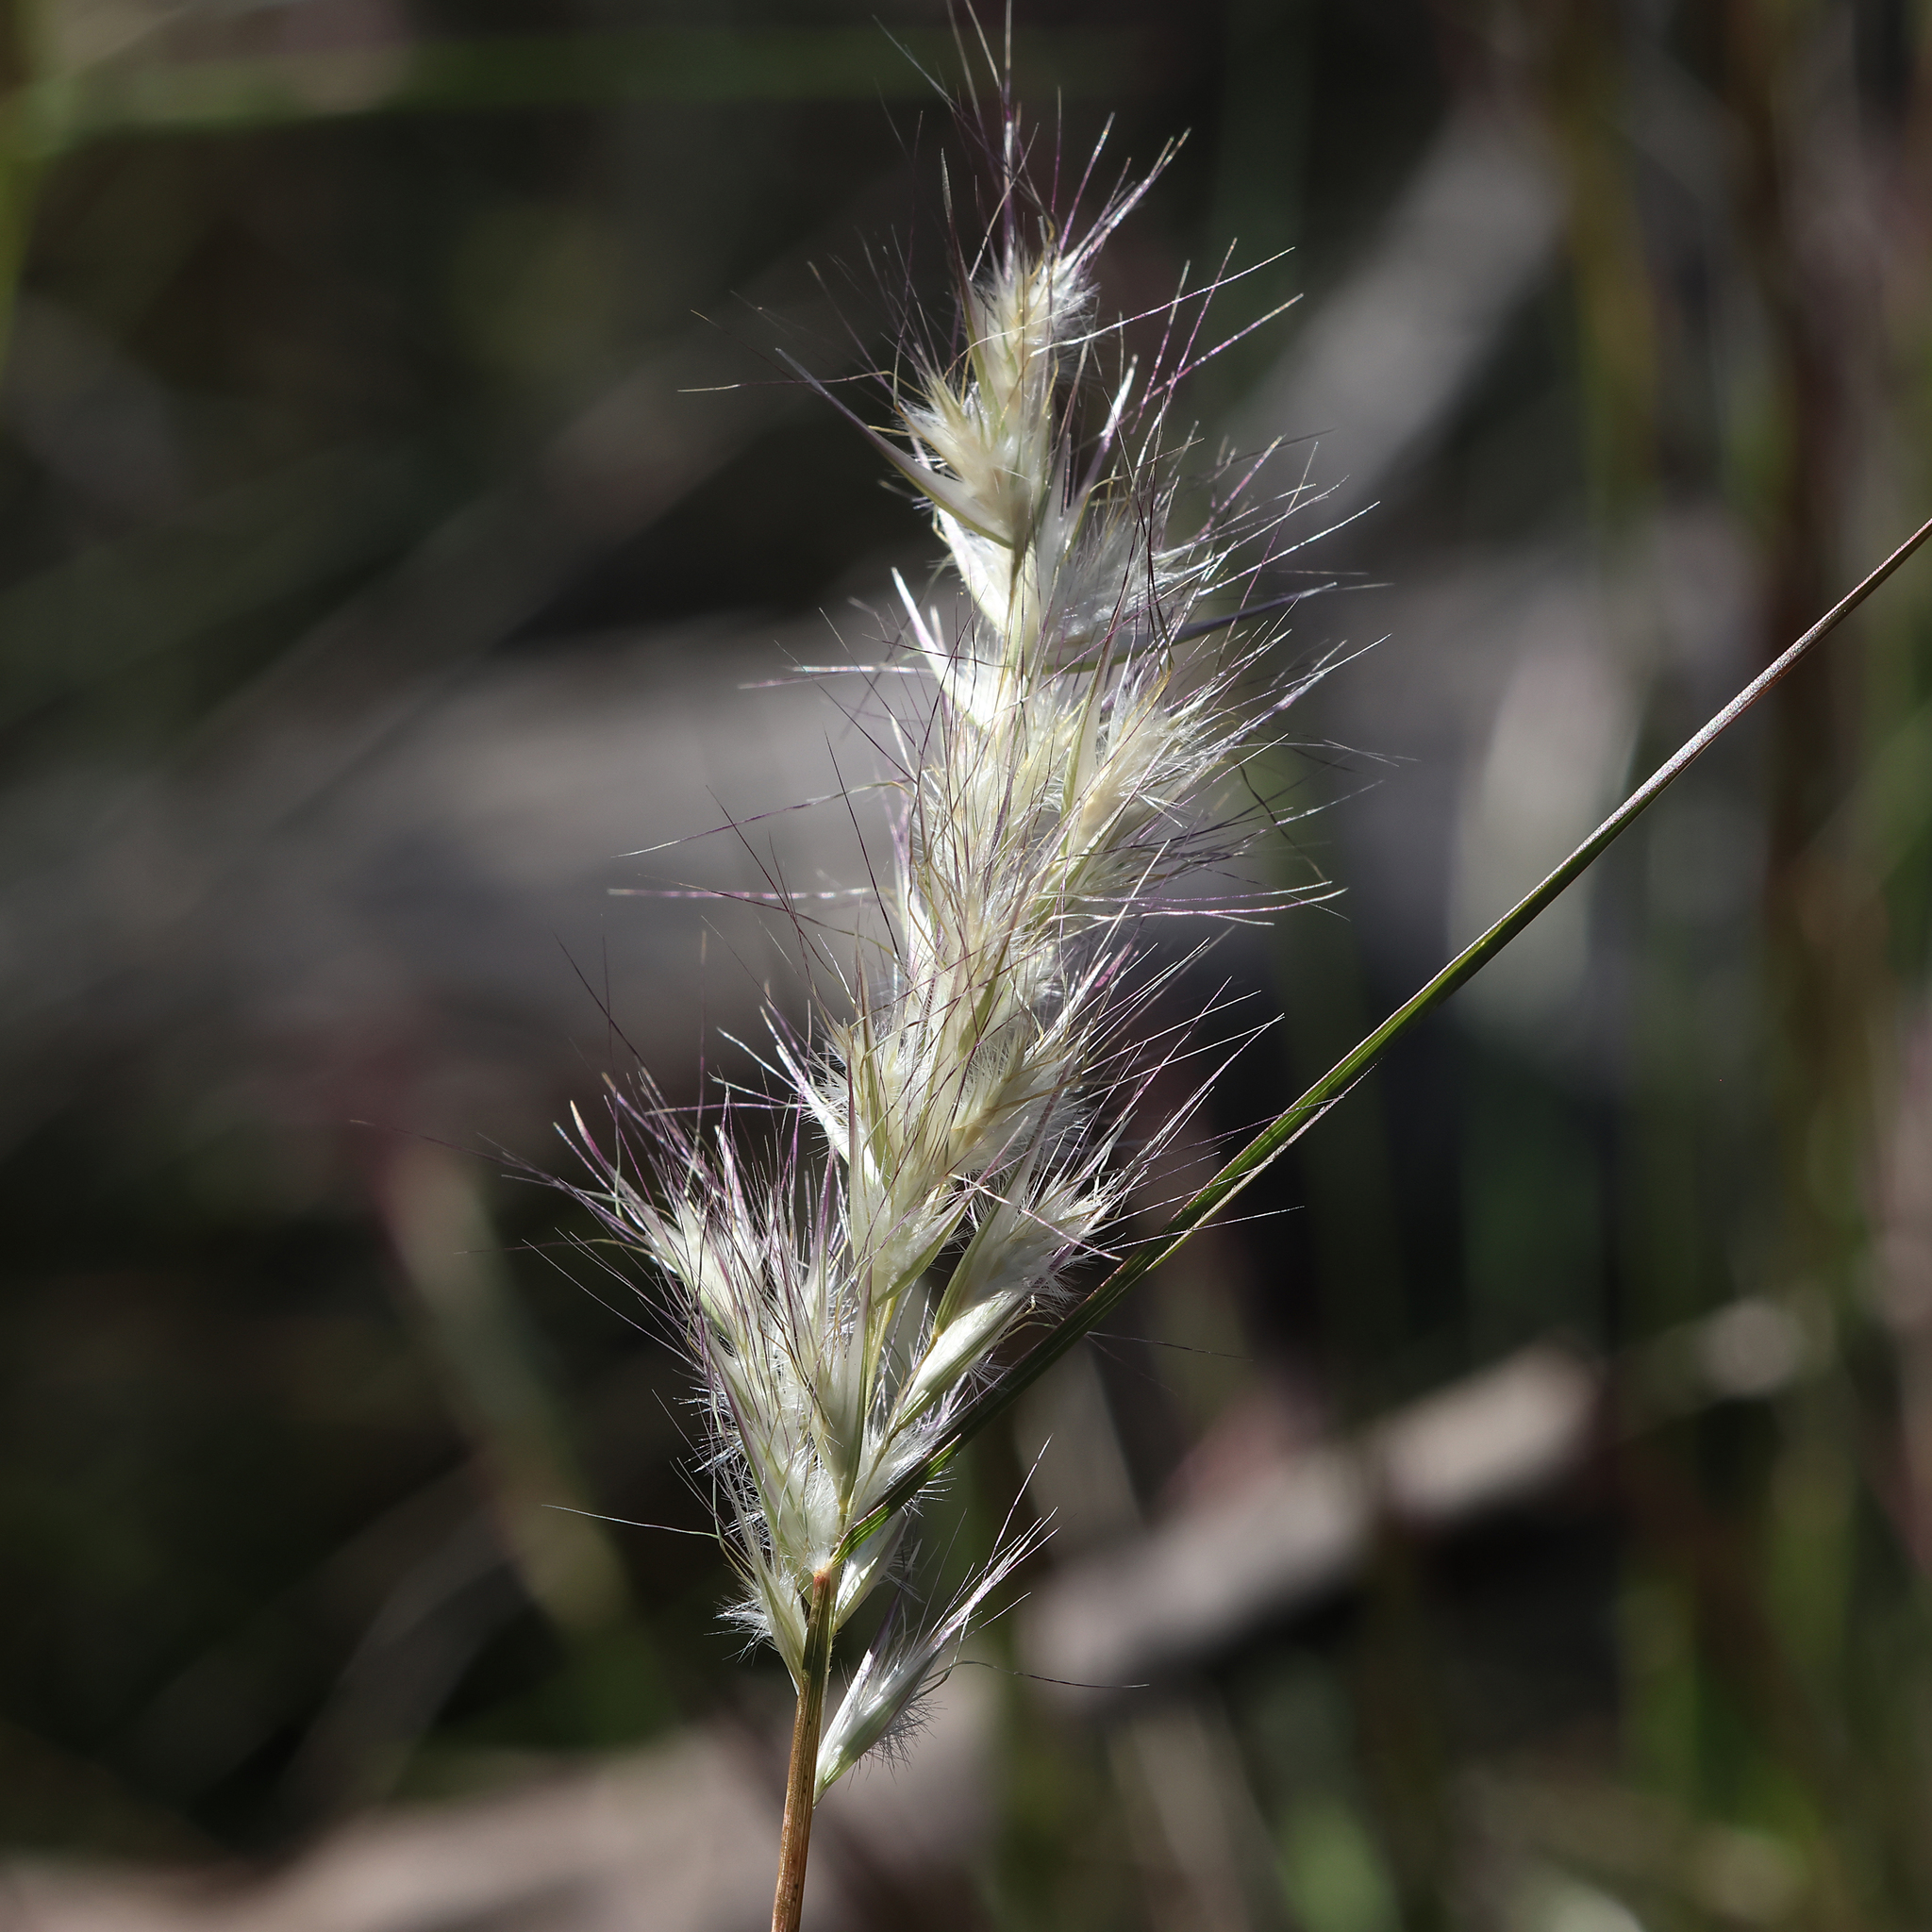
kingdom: Plantae
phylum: Tracheophyta
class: Liliopsida
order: Poales
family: Poaceae
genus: Rytidosperma
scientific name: Rytidosperma caespitosum
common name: Tufted wallaby grass
